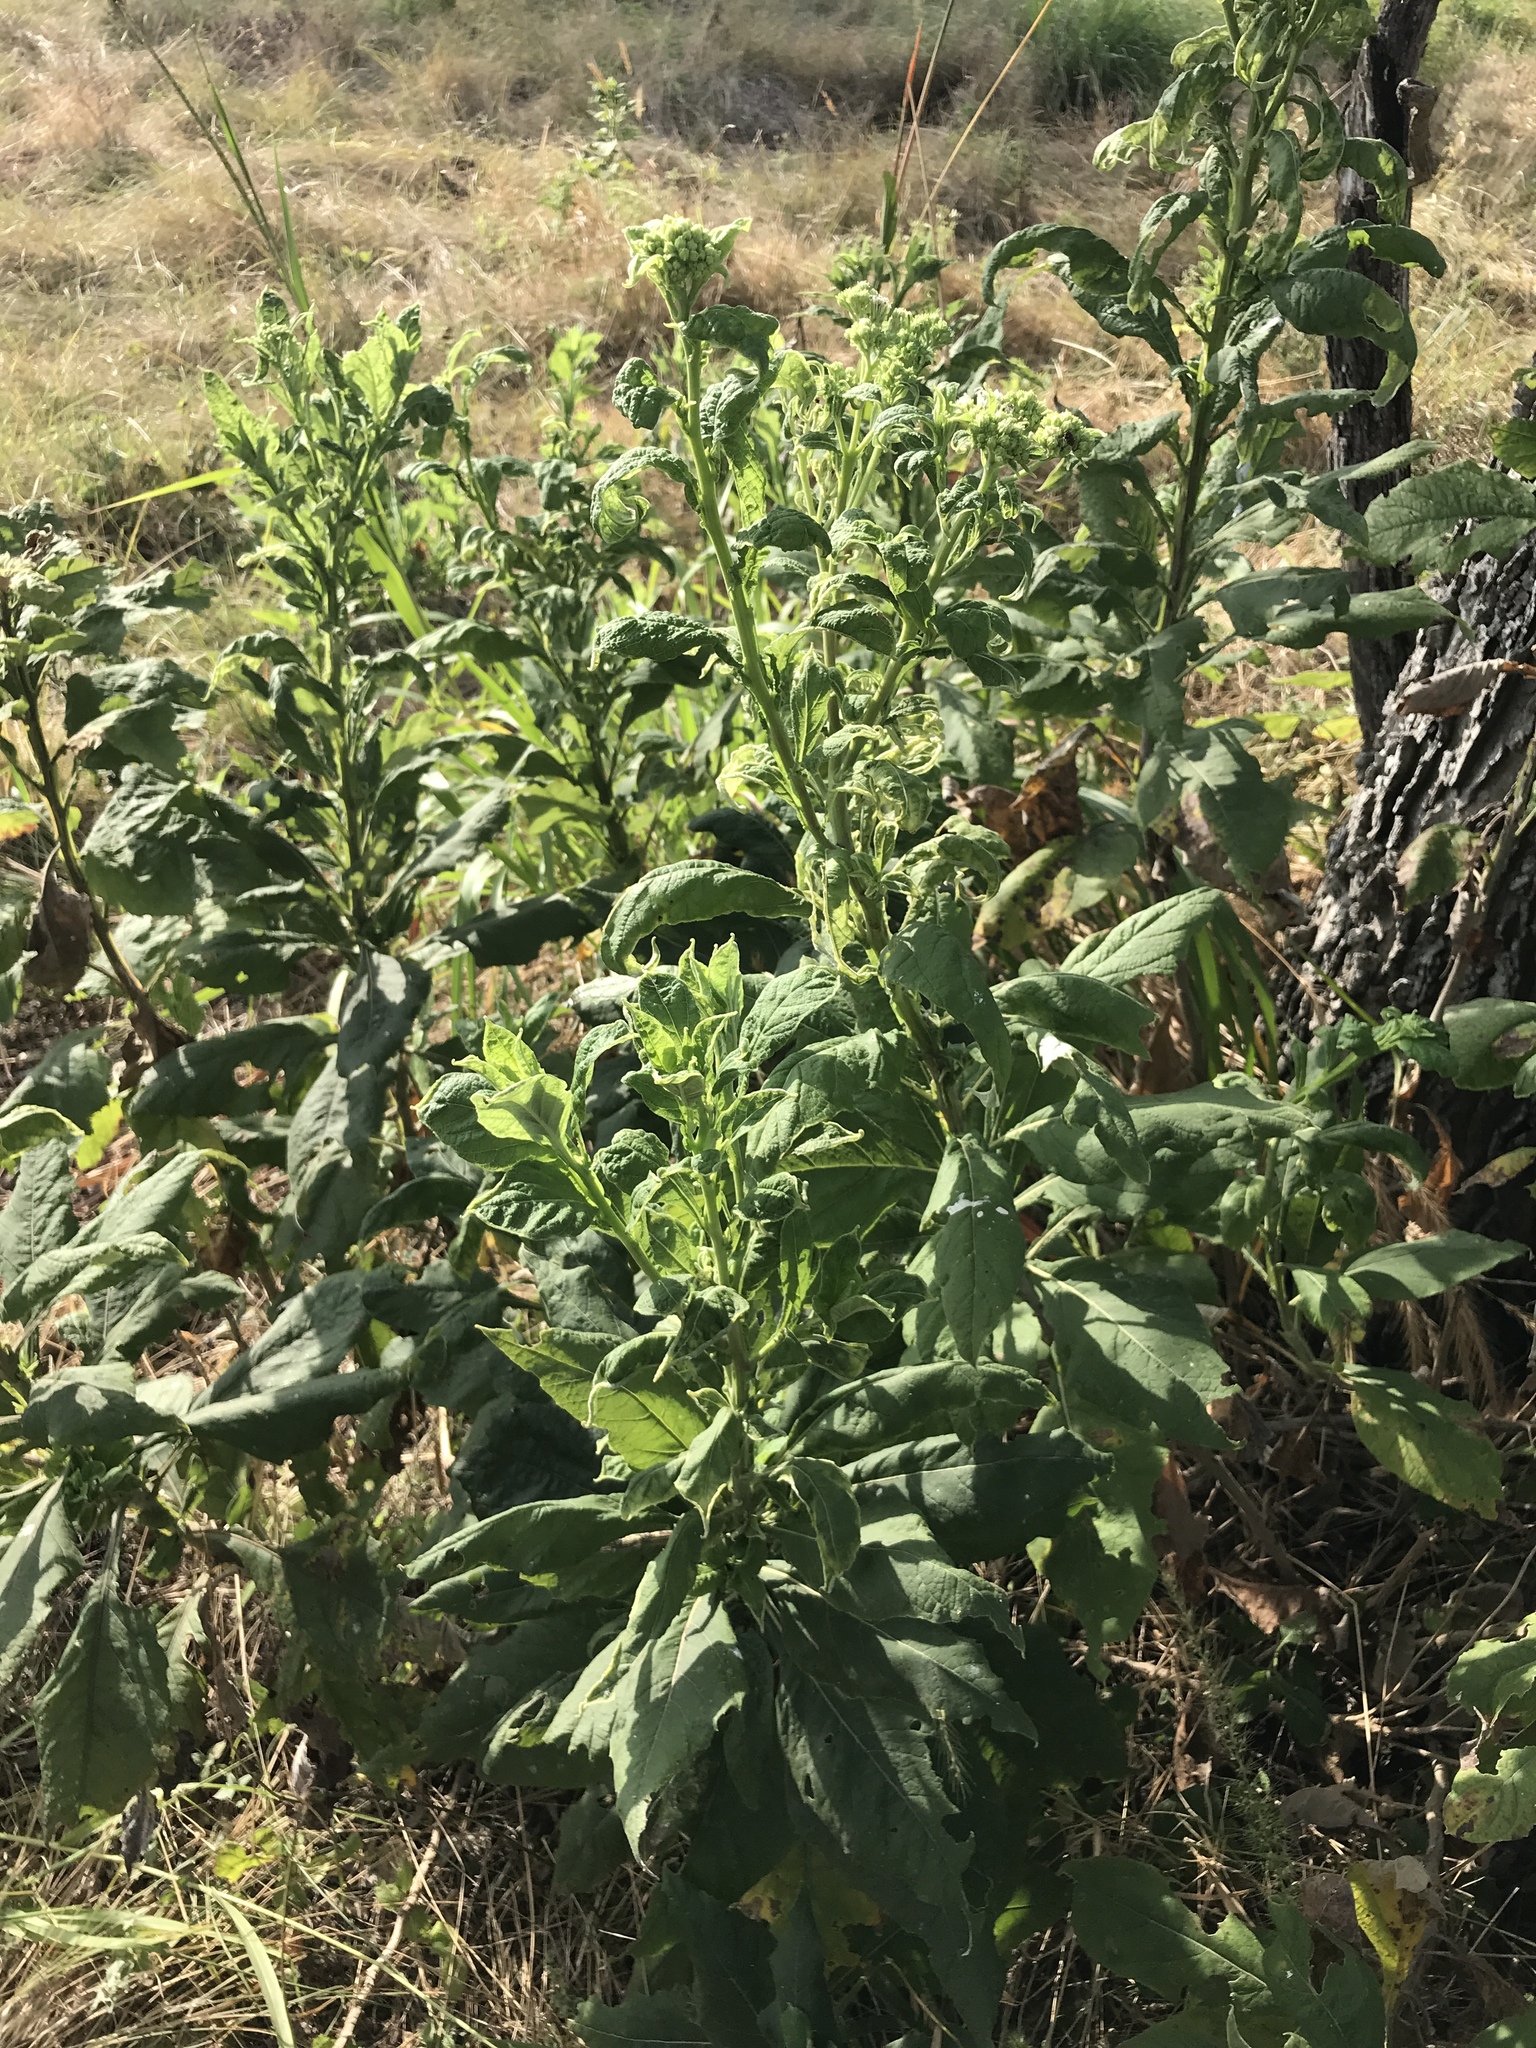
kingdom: Plantae
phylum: Tracheophyta
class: Magnoliopsida
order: Asterales
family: Asteraceae
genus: Verbesina
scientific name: Verbesina virginica
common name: Frostweed
